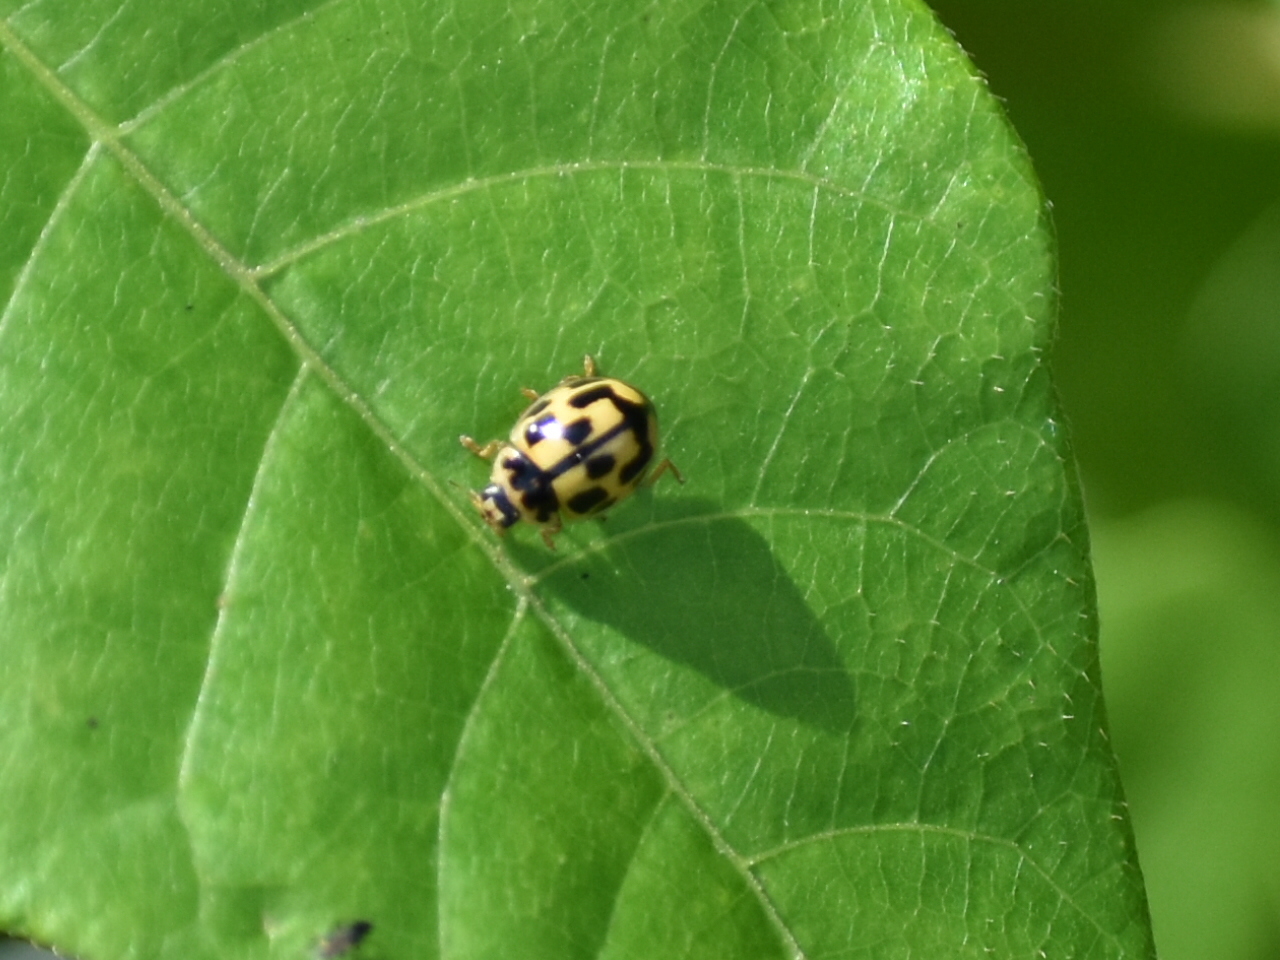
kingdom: Animalia
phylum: Arthropoda
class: Insecta
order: Coleoptera
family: Coccinellidae
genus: Propylaea
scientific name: Propylaea quatuordecimpunctata
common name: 14-spotted ladybird beetle
